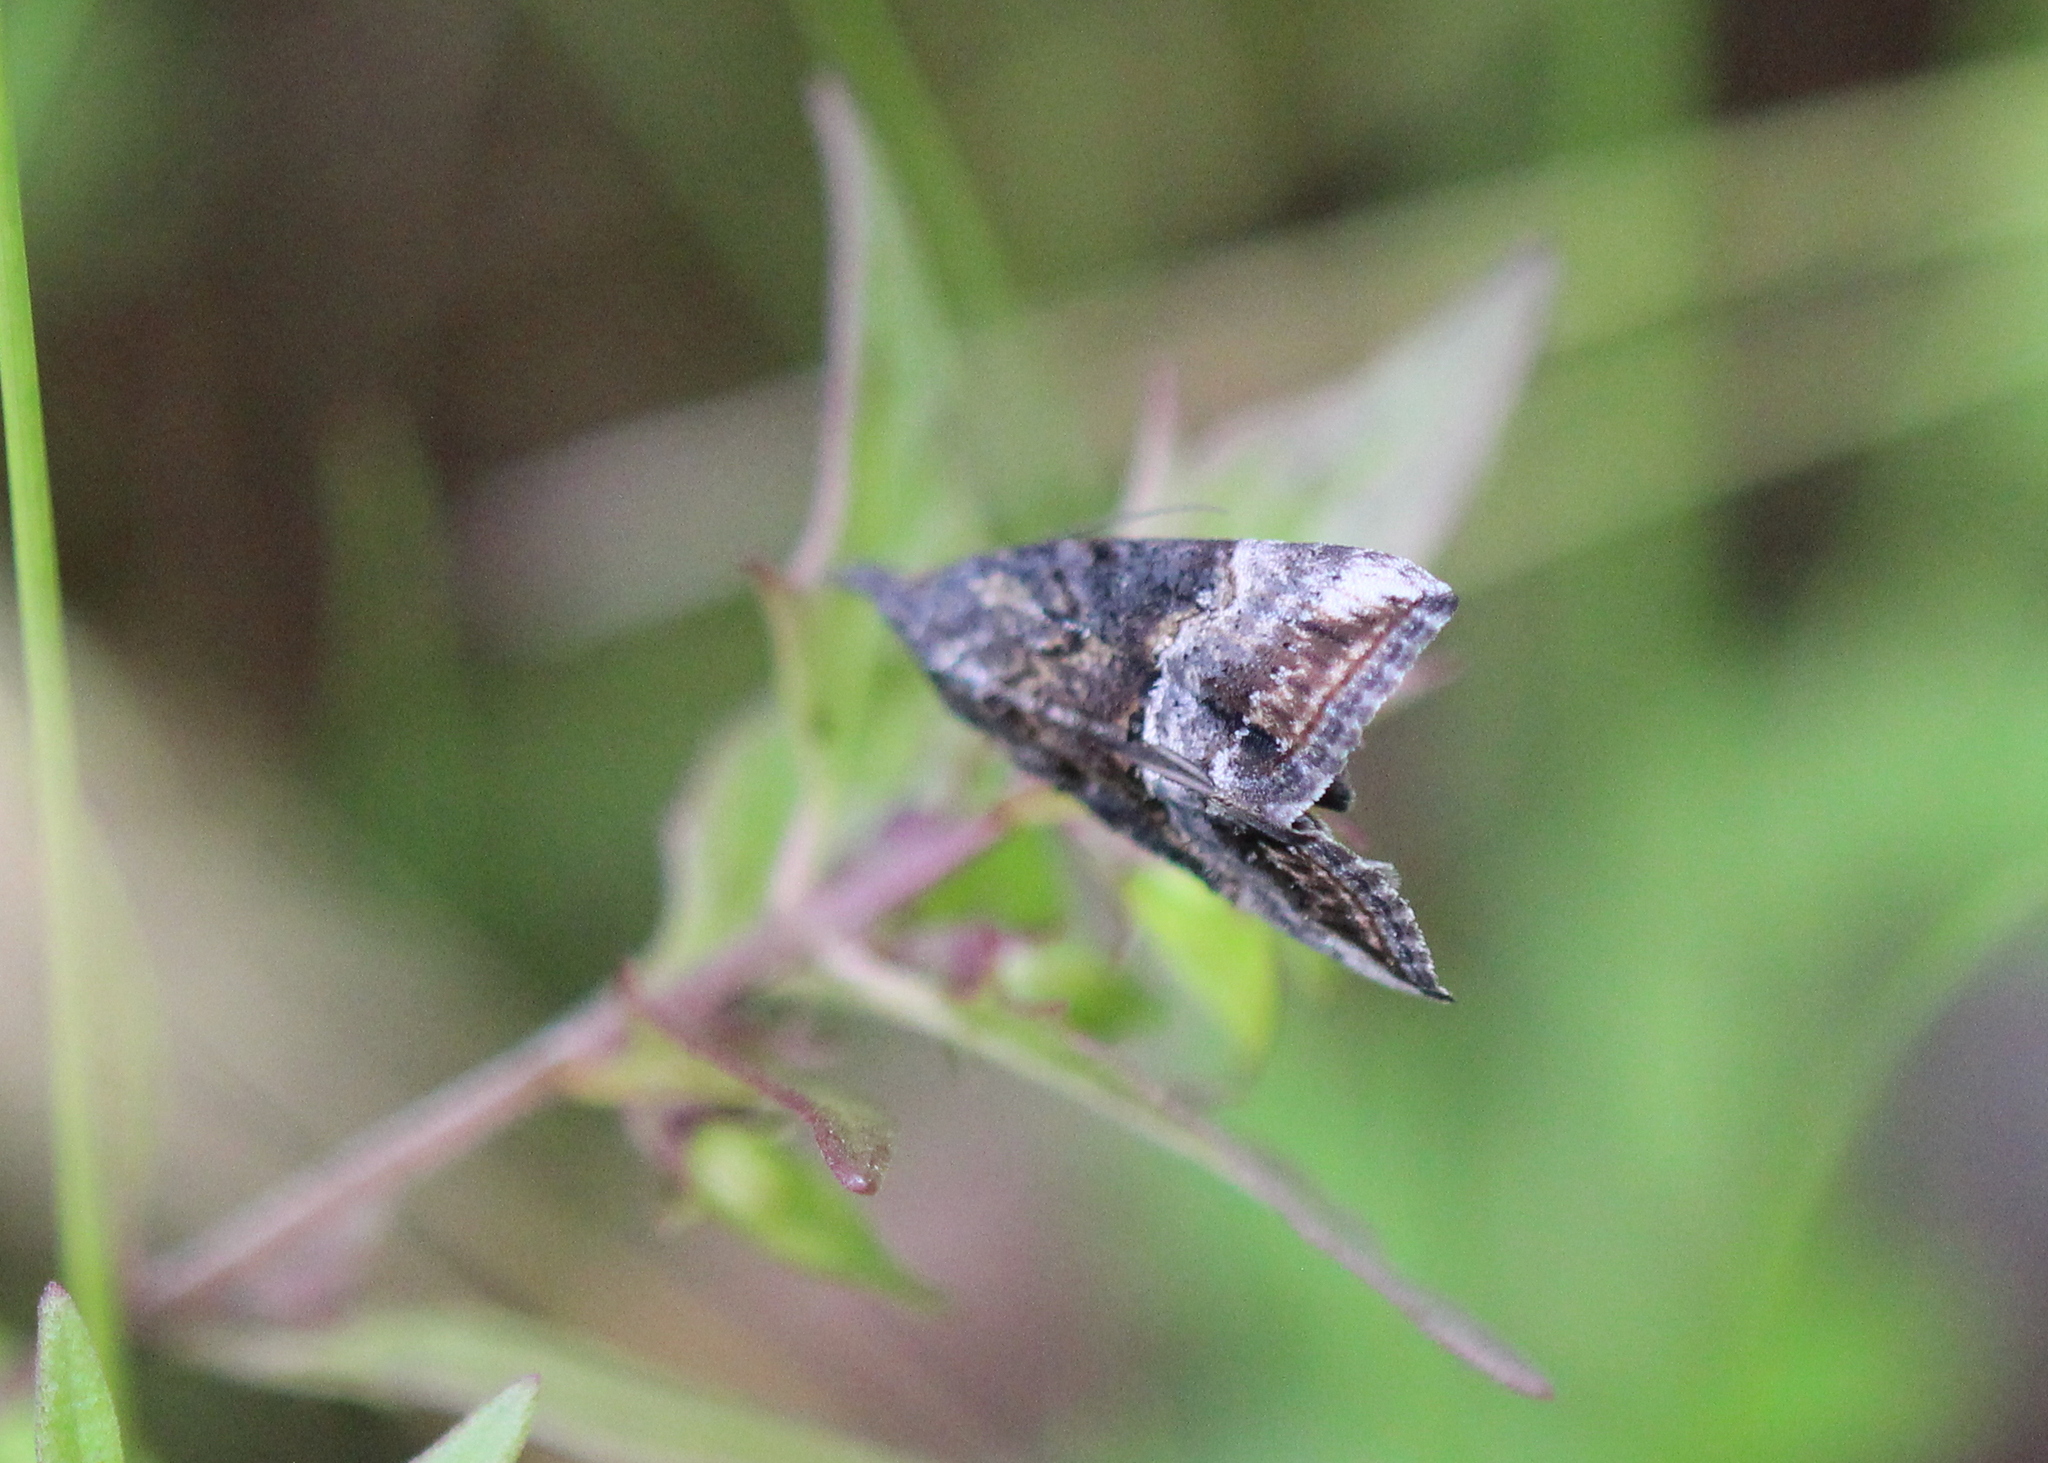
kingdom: Animalia
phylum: Arthropoda
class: Insecta
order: Lepidoptera
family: Erebidae
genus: Hypena
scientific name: Hypena scabra
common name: Green cloverworm
